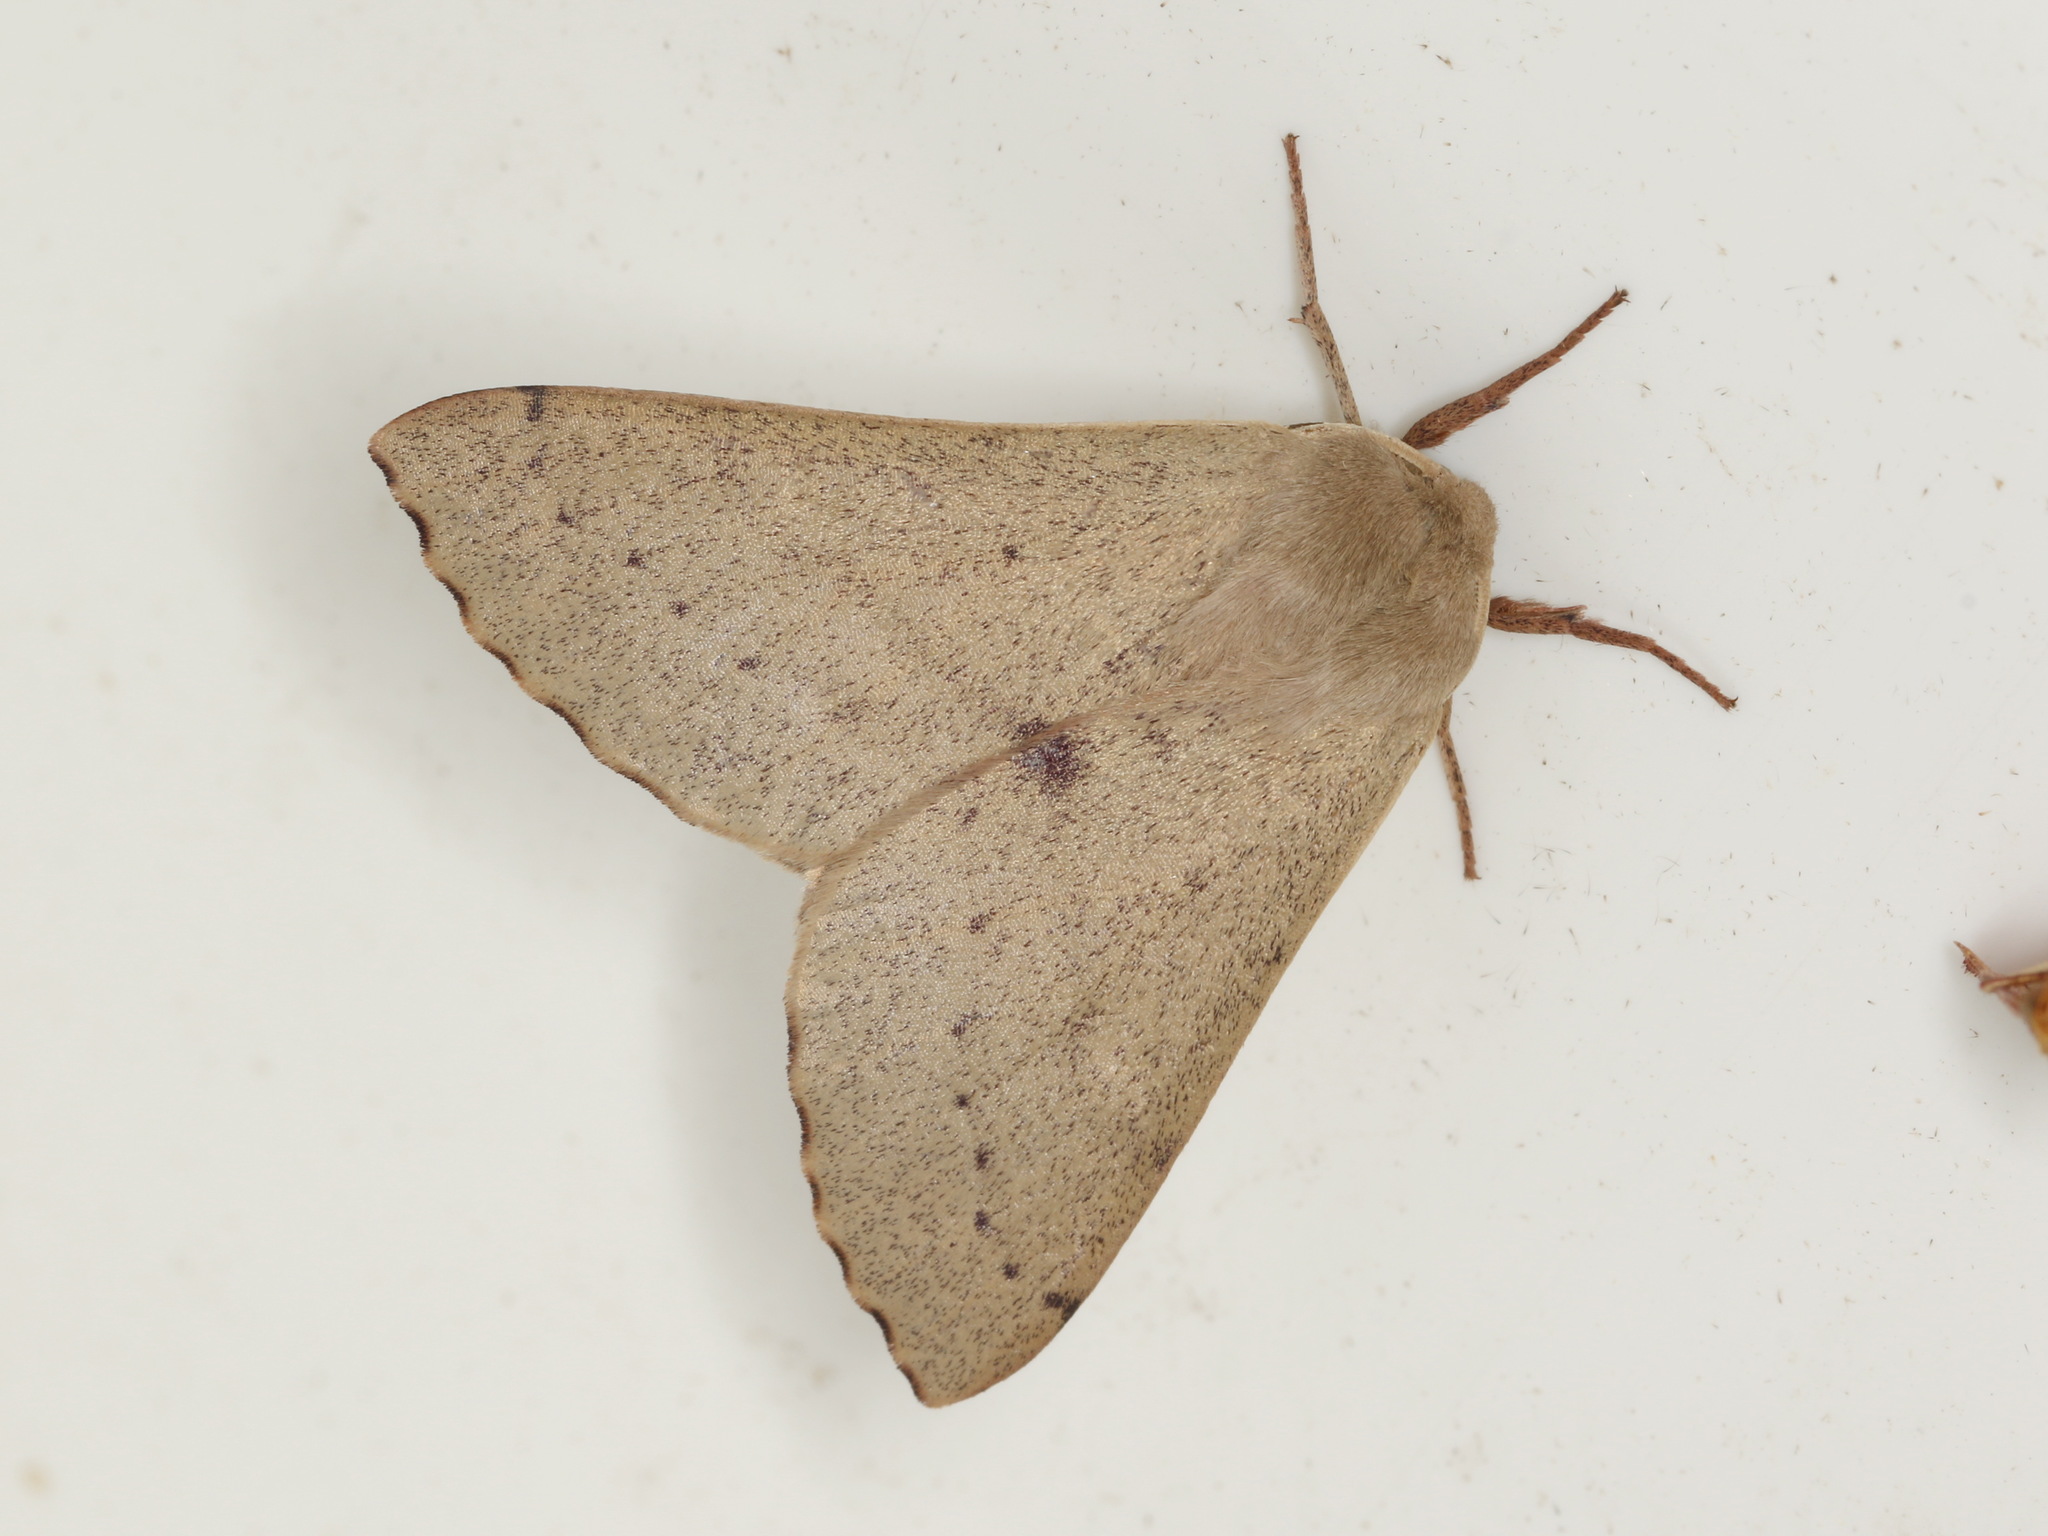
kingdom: Animalia
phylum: Arthropoda
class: Insecta
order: Lepidoptera
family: Geometridae
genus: Arhodia
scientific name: Arhodia lasiocamparia
